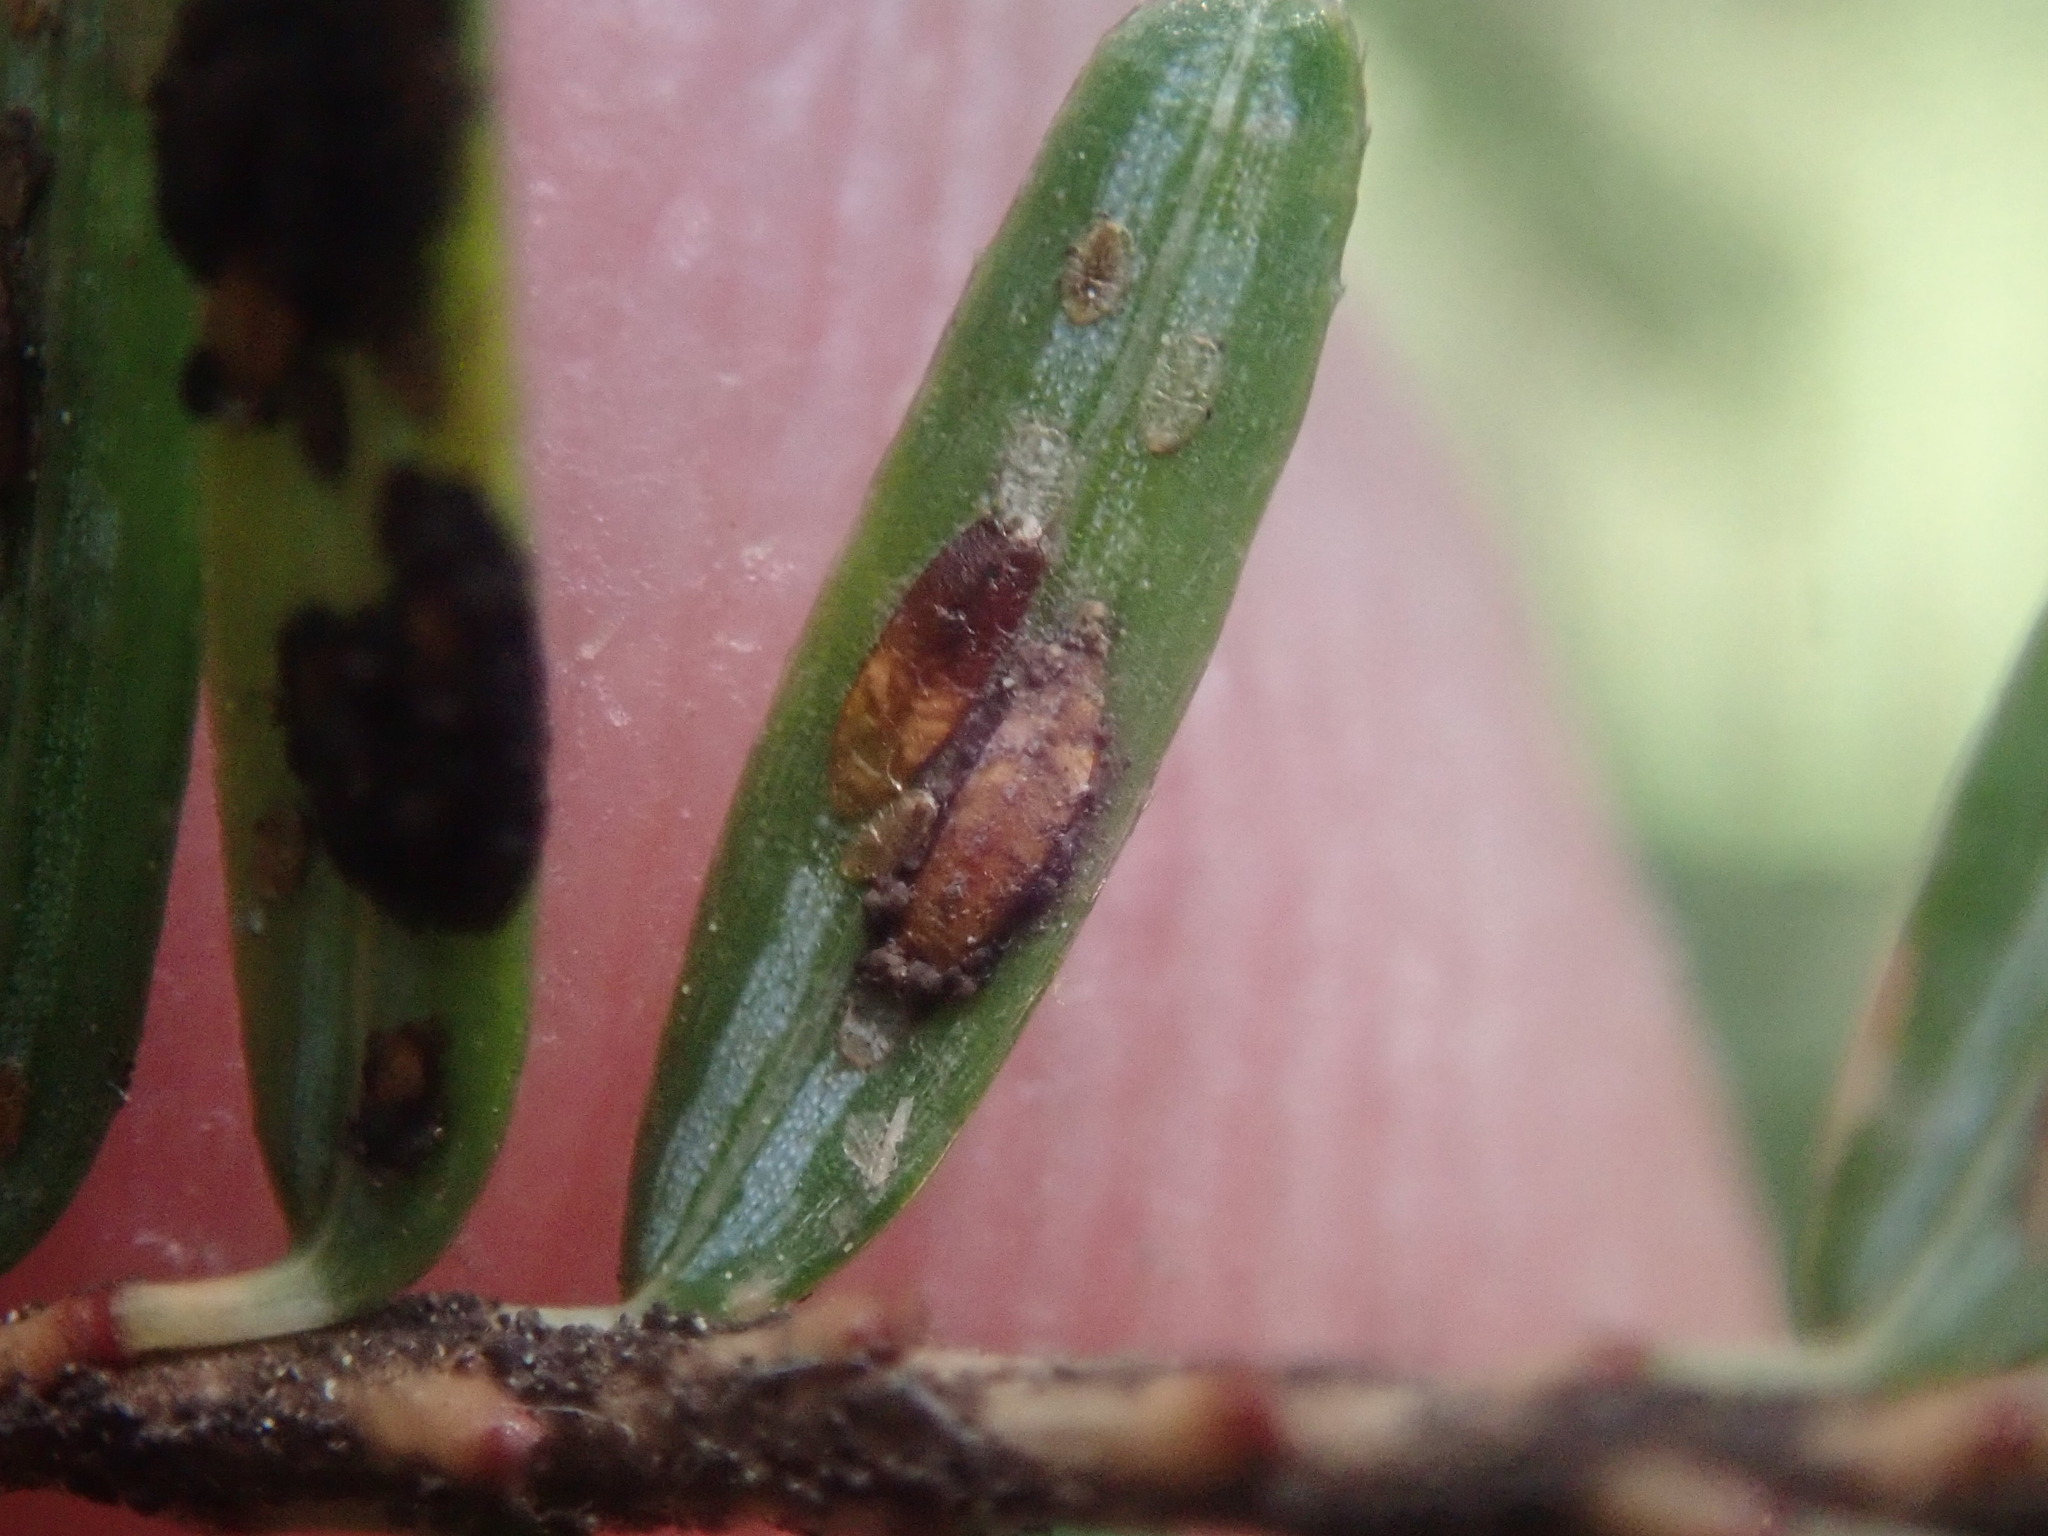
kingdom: Animalia
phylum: Arthropoda
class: Insecta
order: Hemiptera
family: Diaspididae
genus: Fiorinia
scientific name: Fiorinia externa
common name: Elongate hemlock scale
